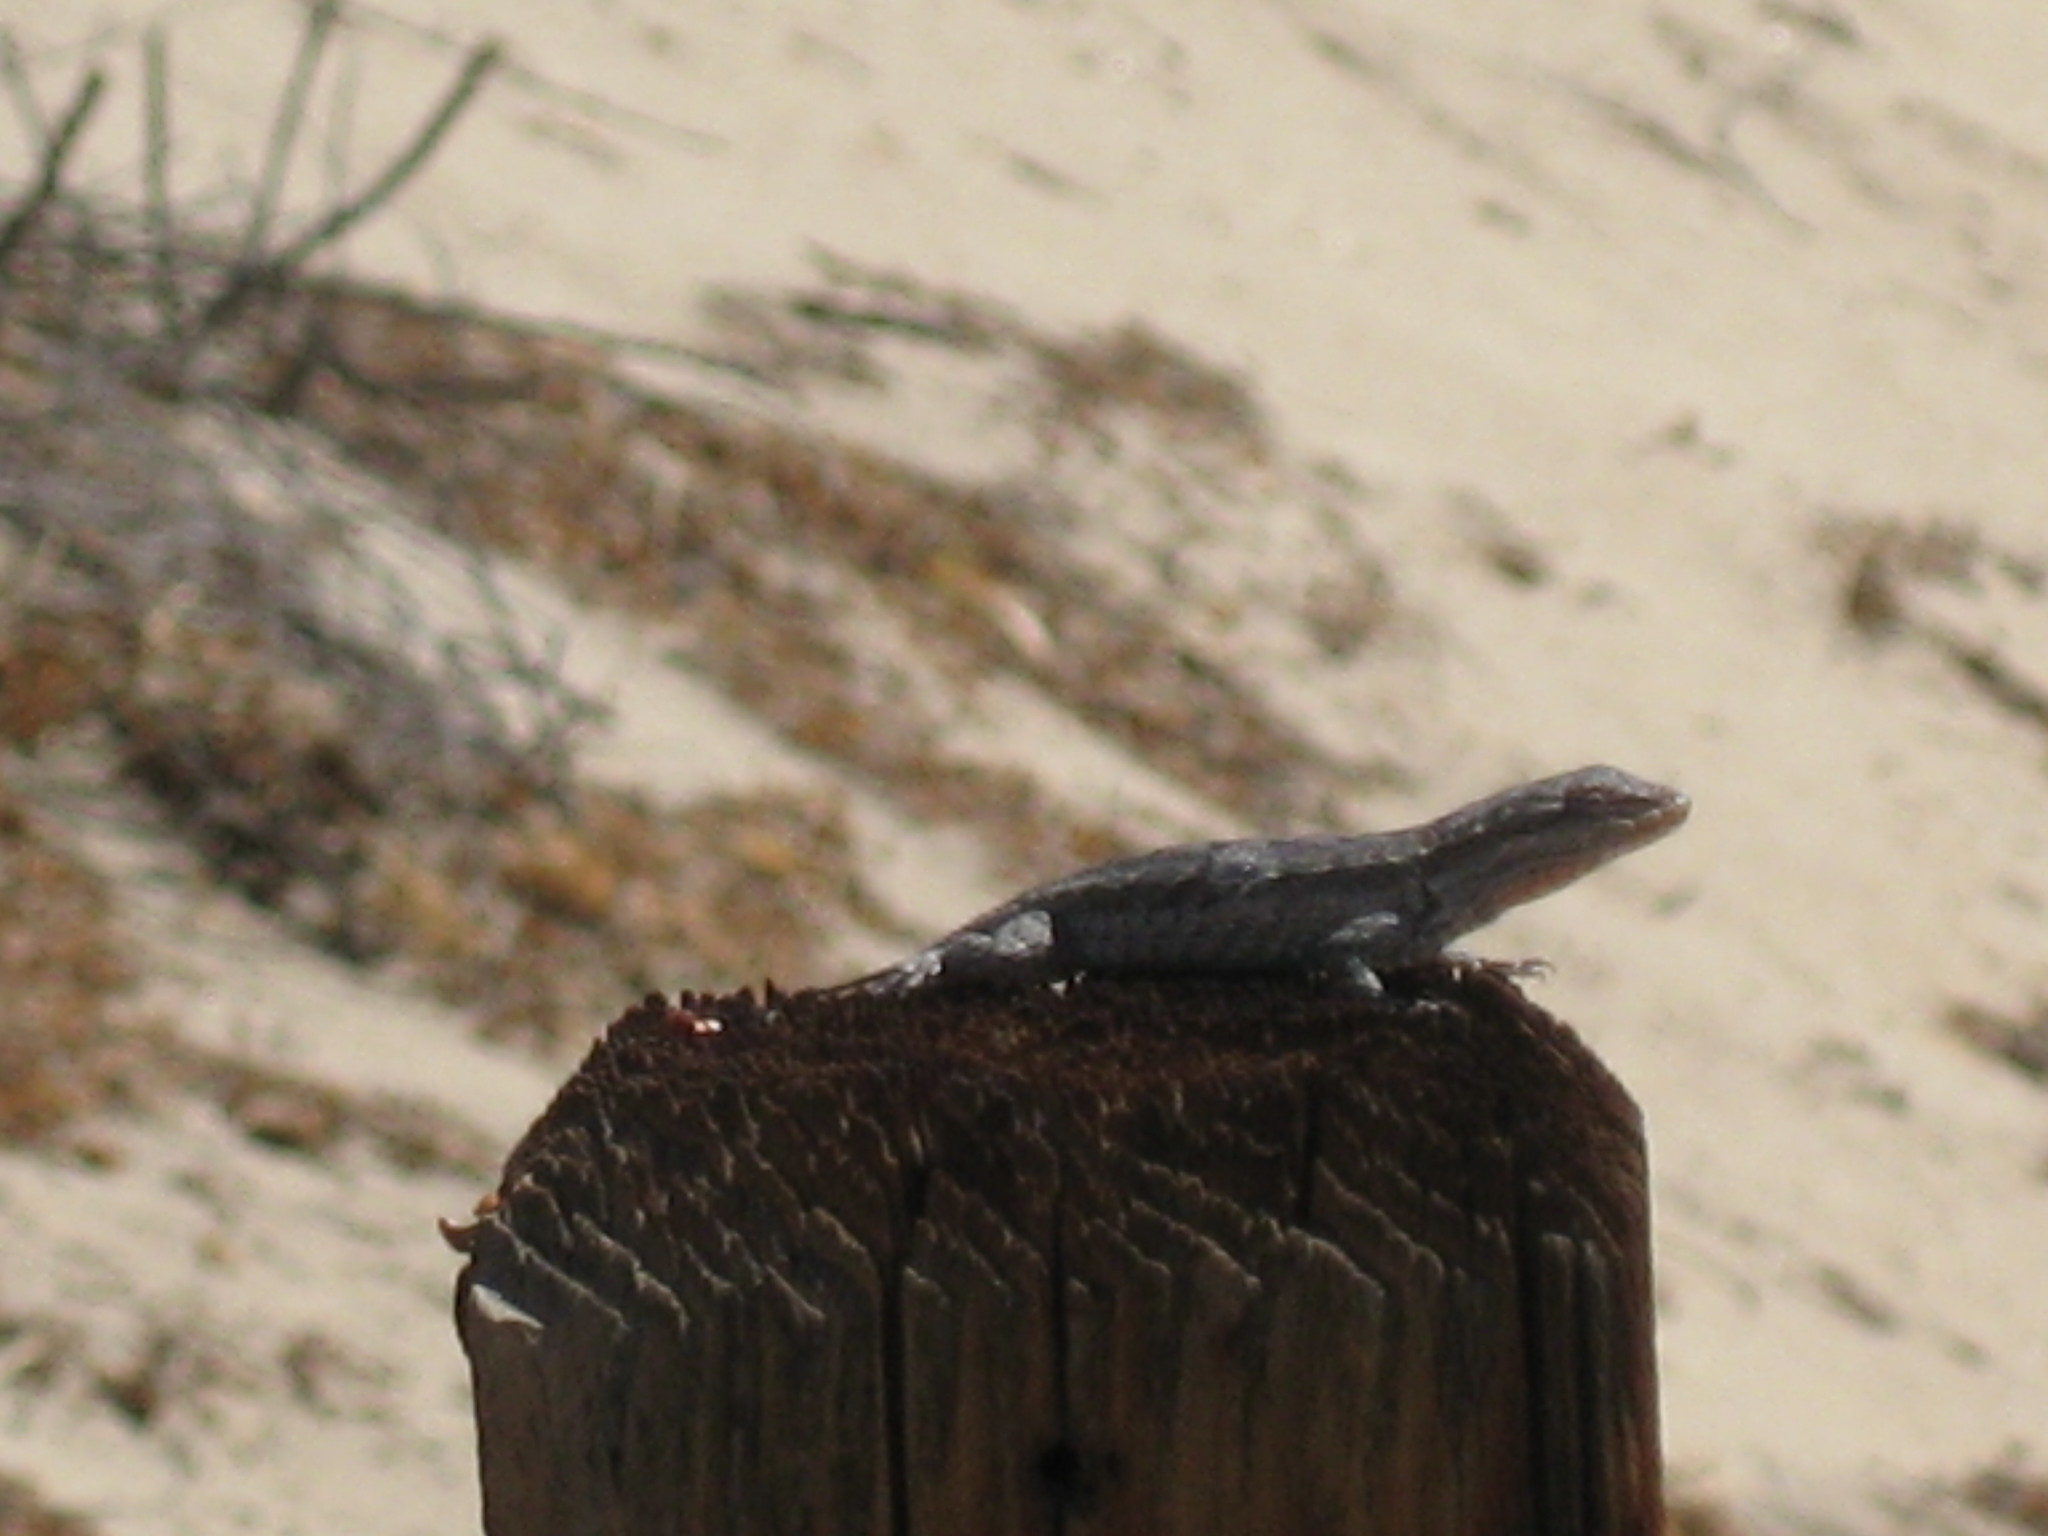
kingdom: Animalia
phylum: Chordata
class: Squamata
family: Phrynosomatidae
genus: Urosaurus
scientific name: Urosaurus graciosus
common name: Long-tailed brush lizard
